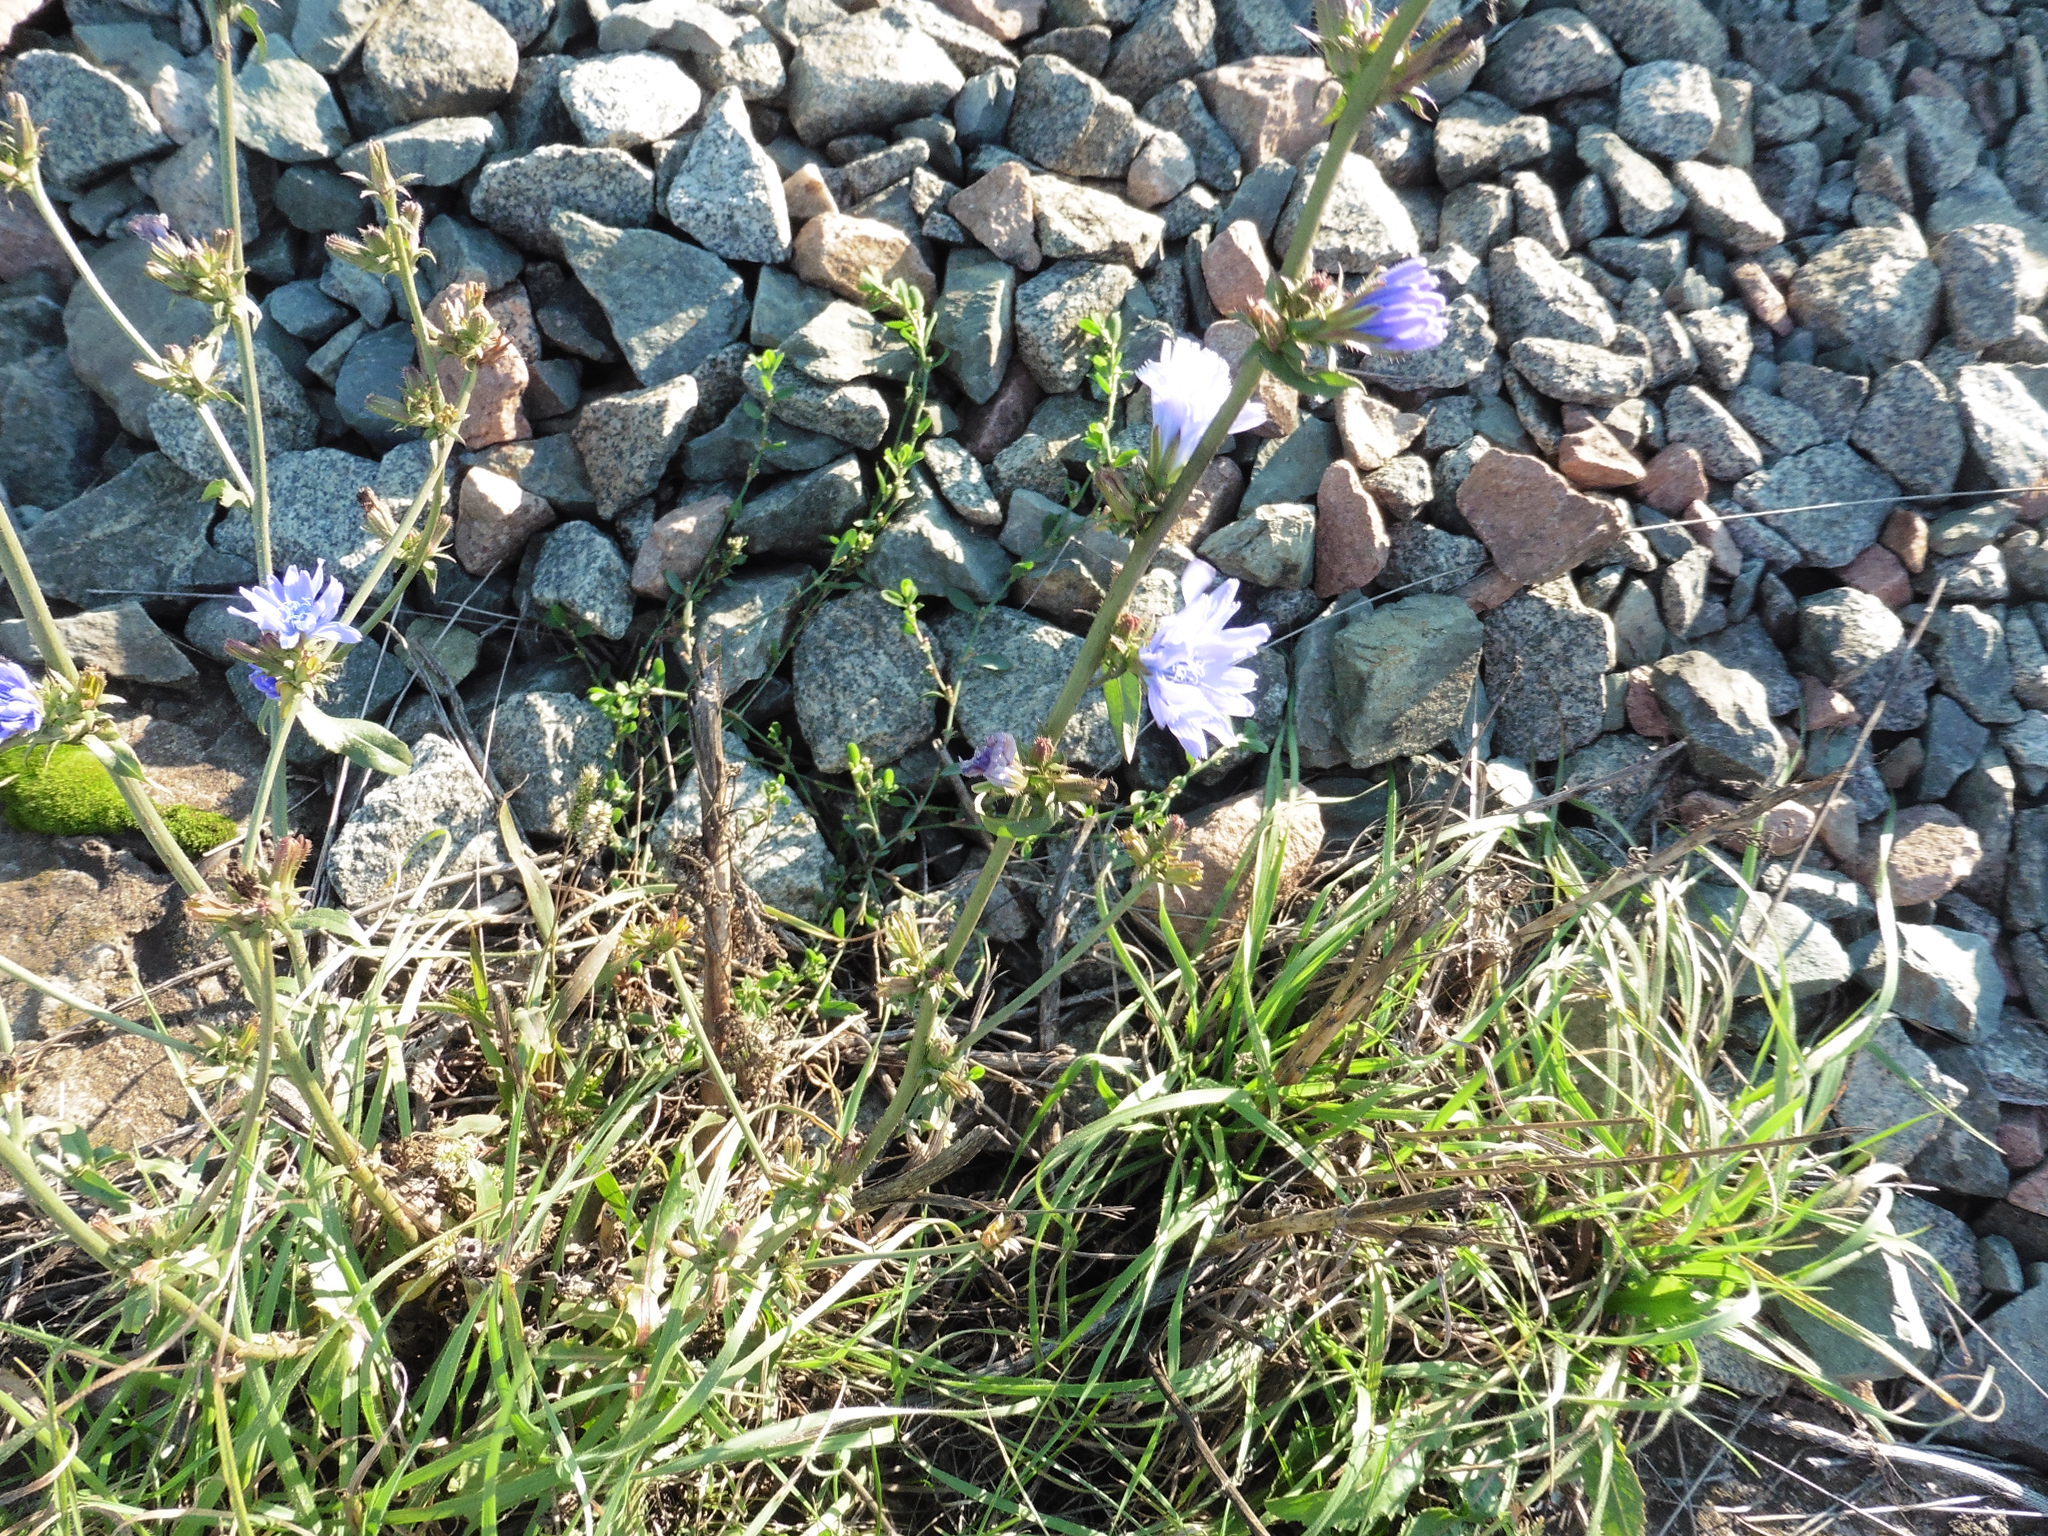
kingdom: Plantae
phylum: Tracheophyta
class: Magnoliopsida
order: Asterales
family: Asteraceae
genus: Cichorium
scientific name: Cichorium intybus
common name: Chicory
